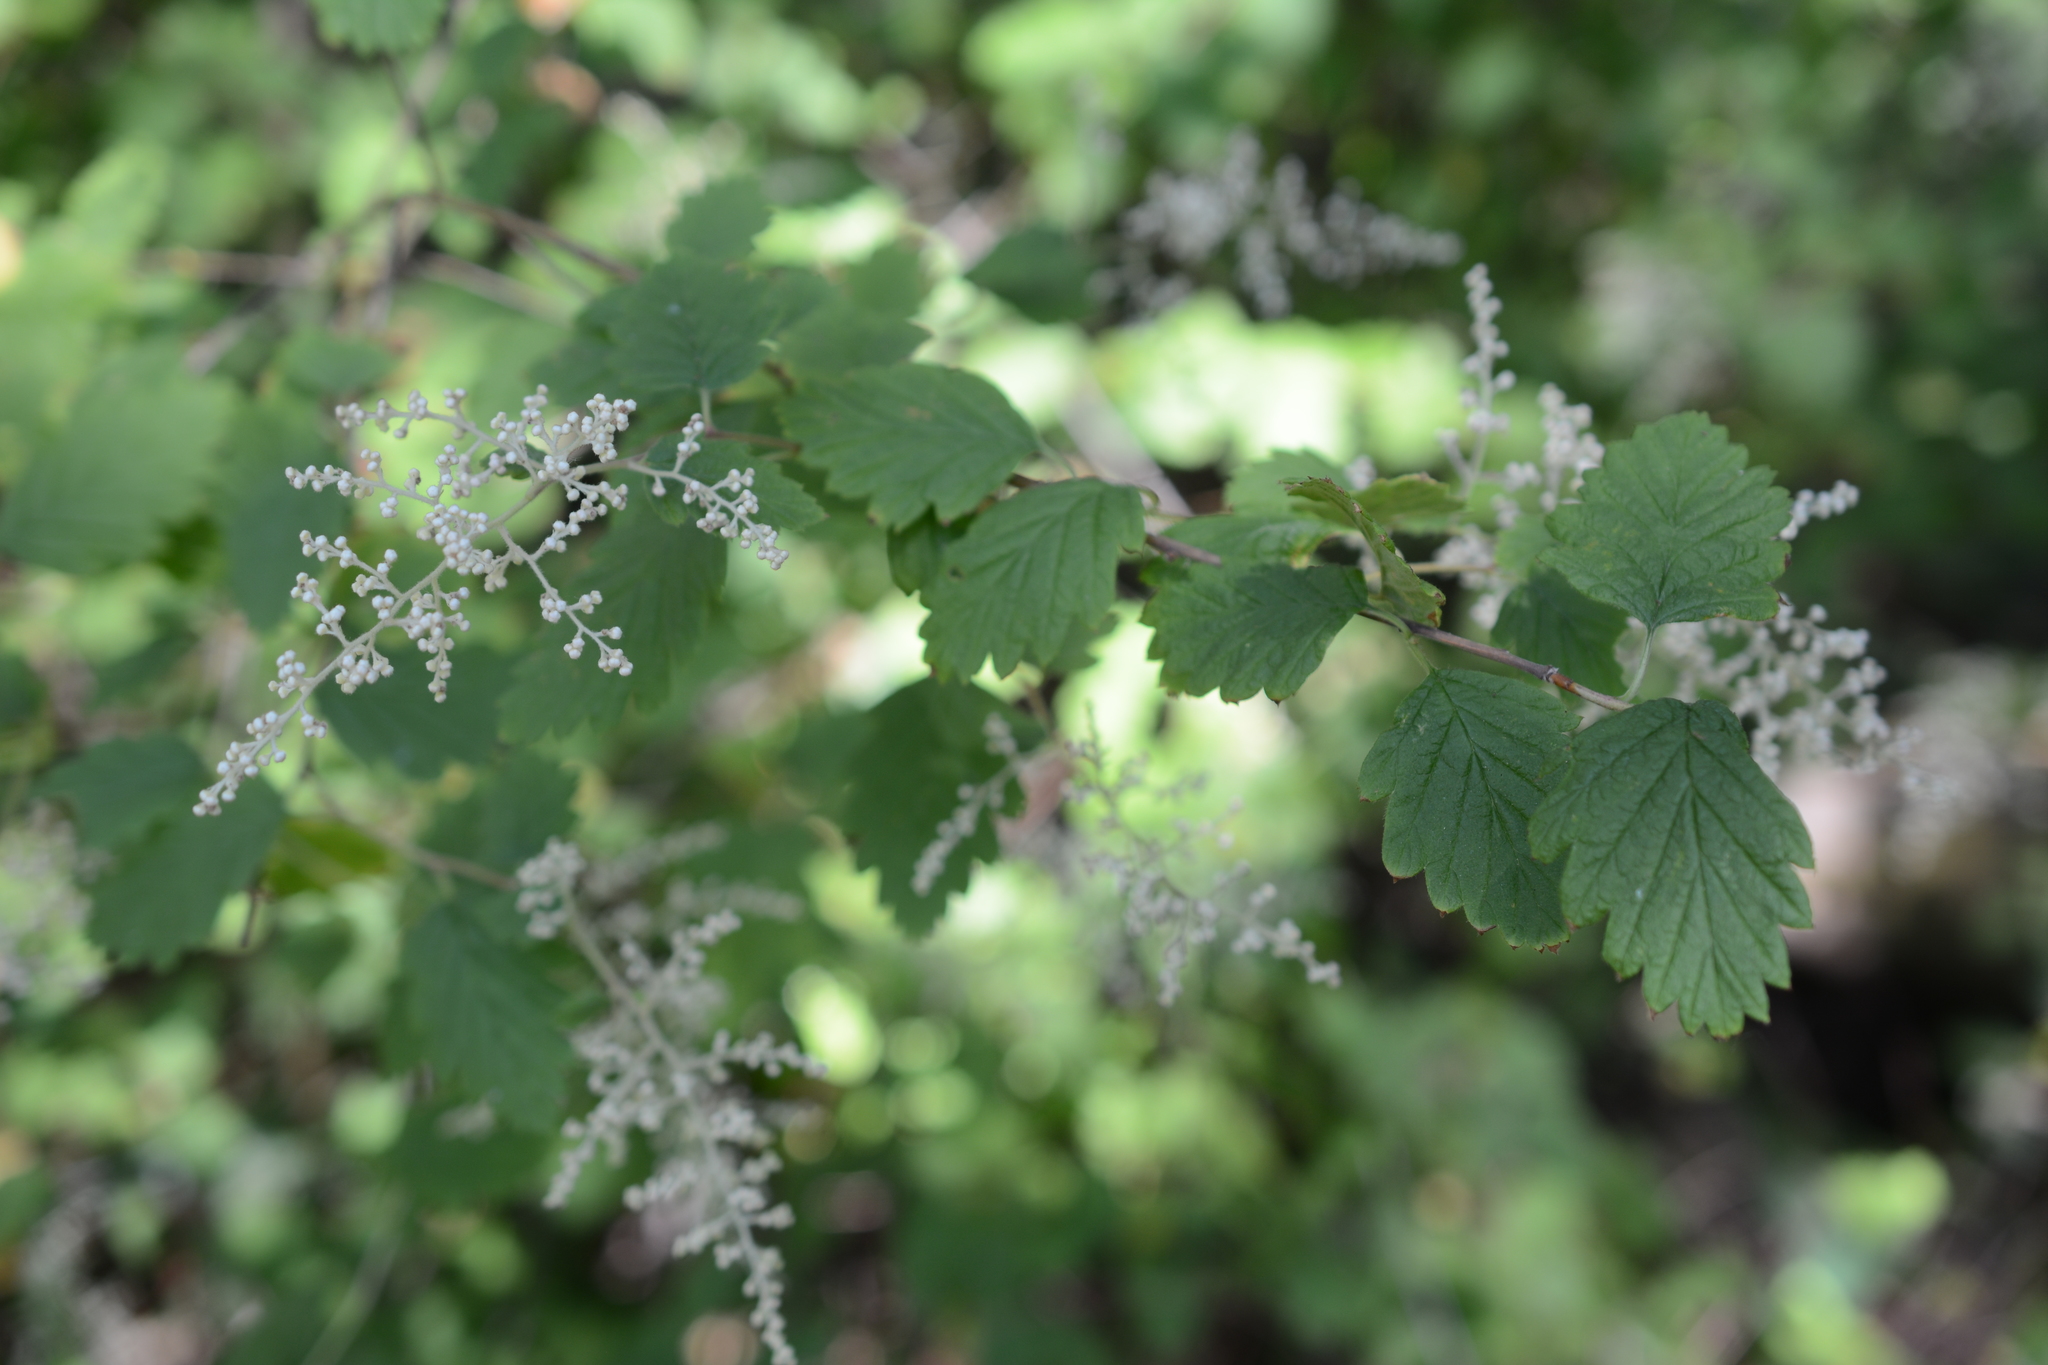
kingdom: Plantae
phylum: Tracheophyta
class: Magnoliopsida
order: Rosales
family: Rosaceae
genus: Holodiscus
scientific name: Holodiscus discolor
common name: Oceanspray
